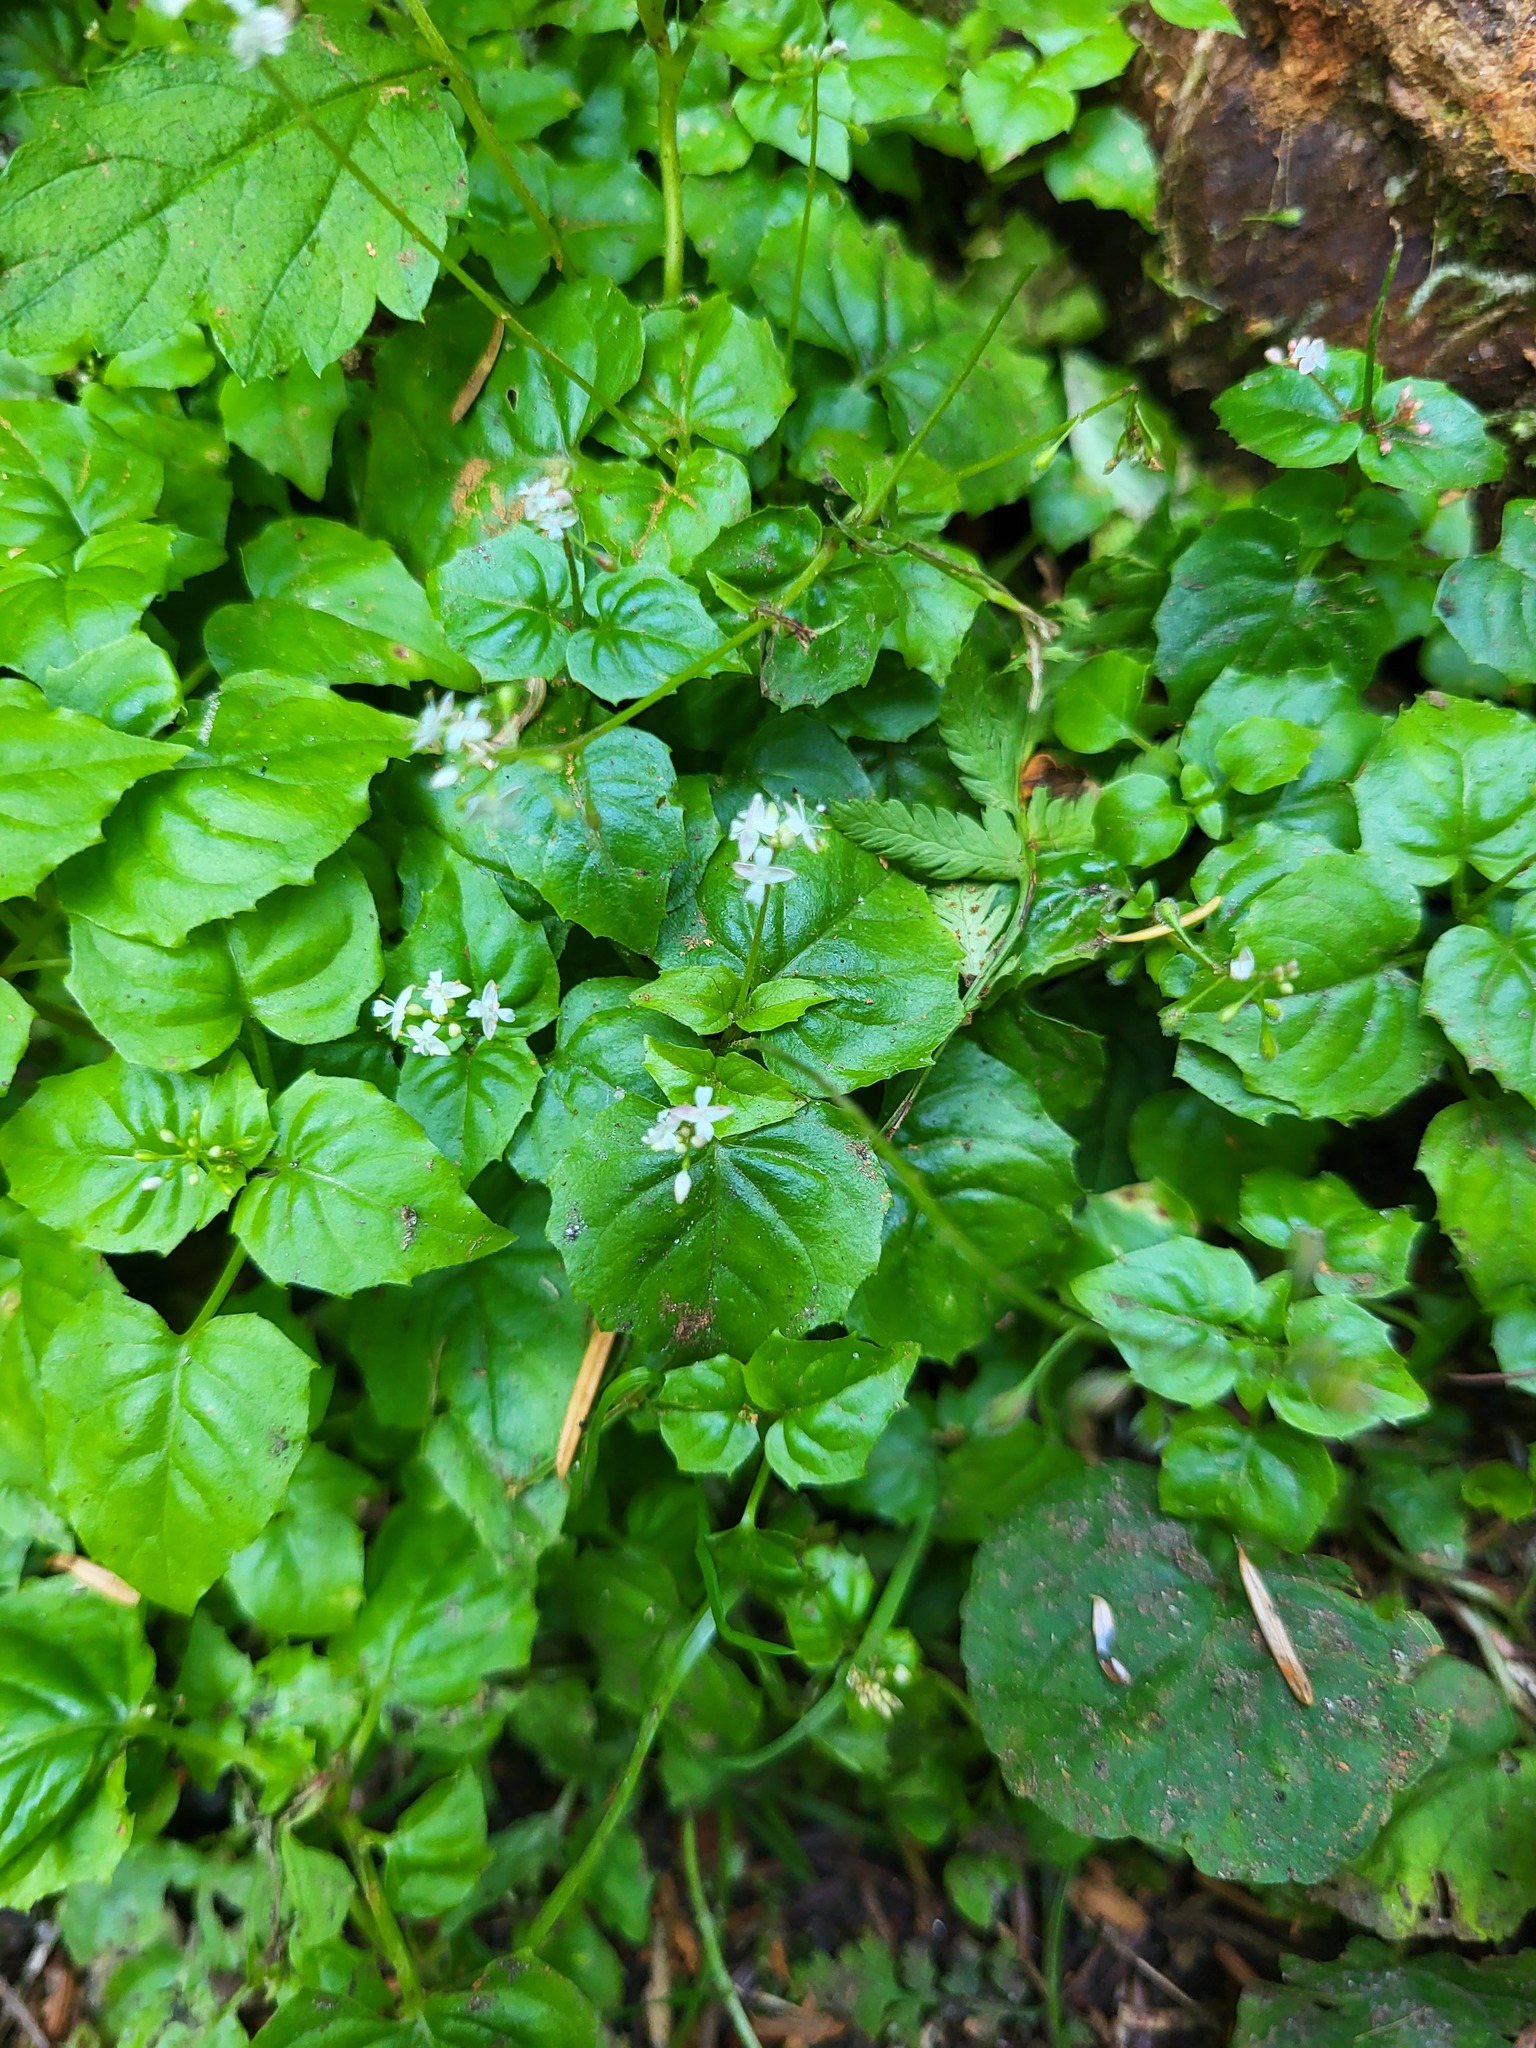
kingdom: Plantae
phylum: Tracheophyta
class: Magnoliopsida
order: Myrtales
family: Onagraceae
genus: Circaea
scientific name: Circaea alpina
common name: Alpine enchanter's-nightshade
